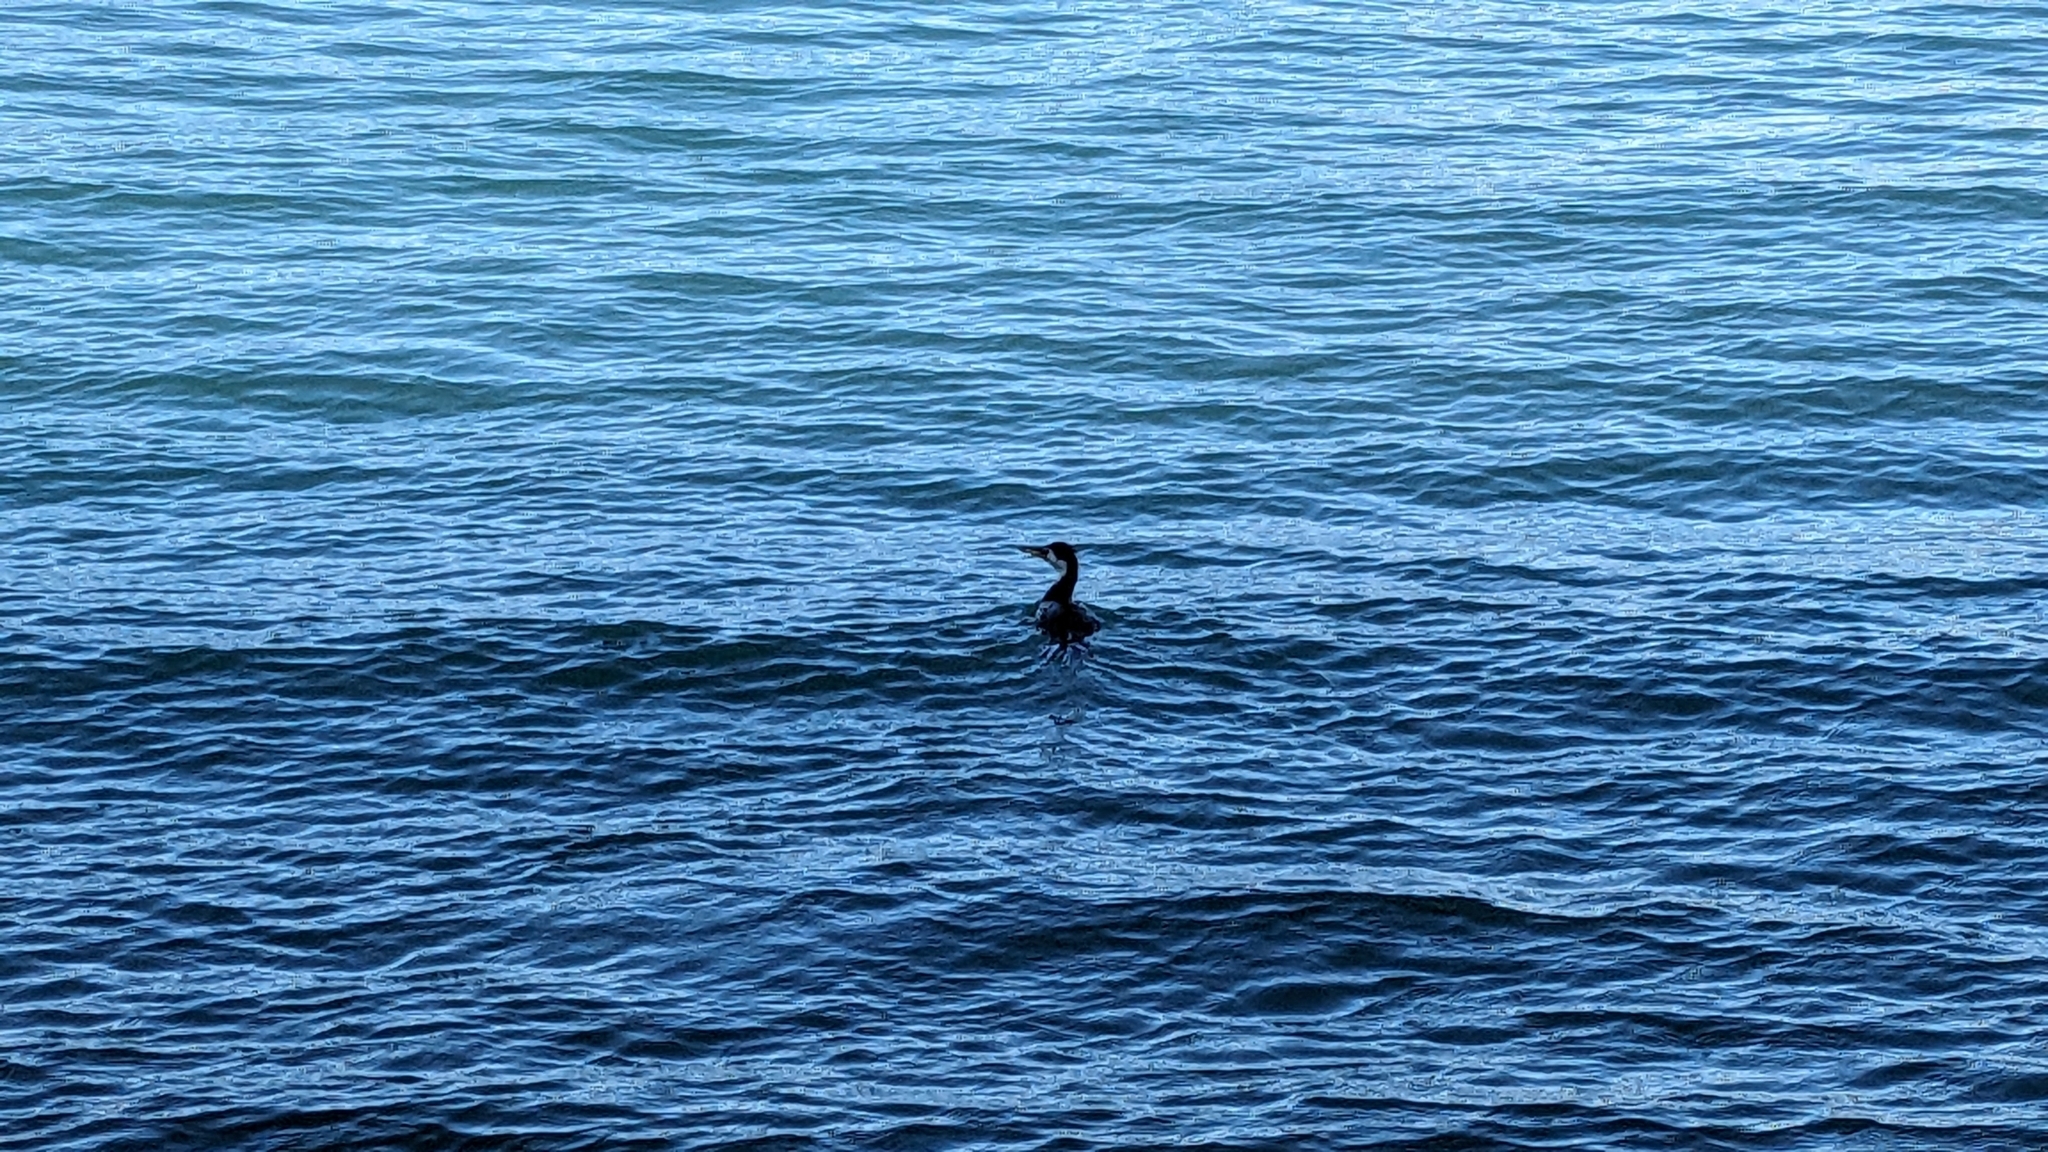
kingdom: Animalia
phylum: Chordata
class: Aves
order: Suliformes
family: Phalacrocoracidae
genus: Microcarbo
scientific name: Microcarbo melanoleucos
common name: Little pied cormorant
